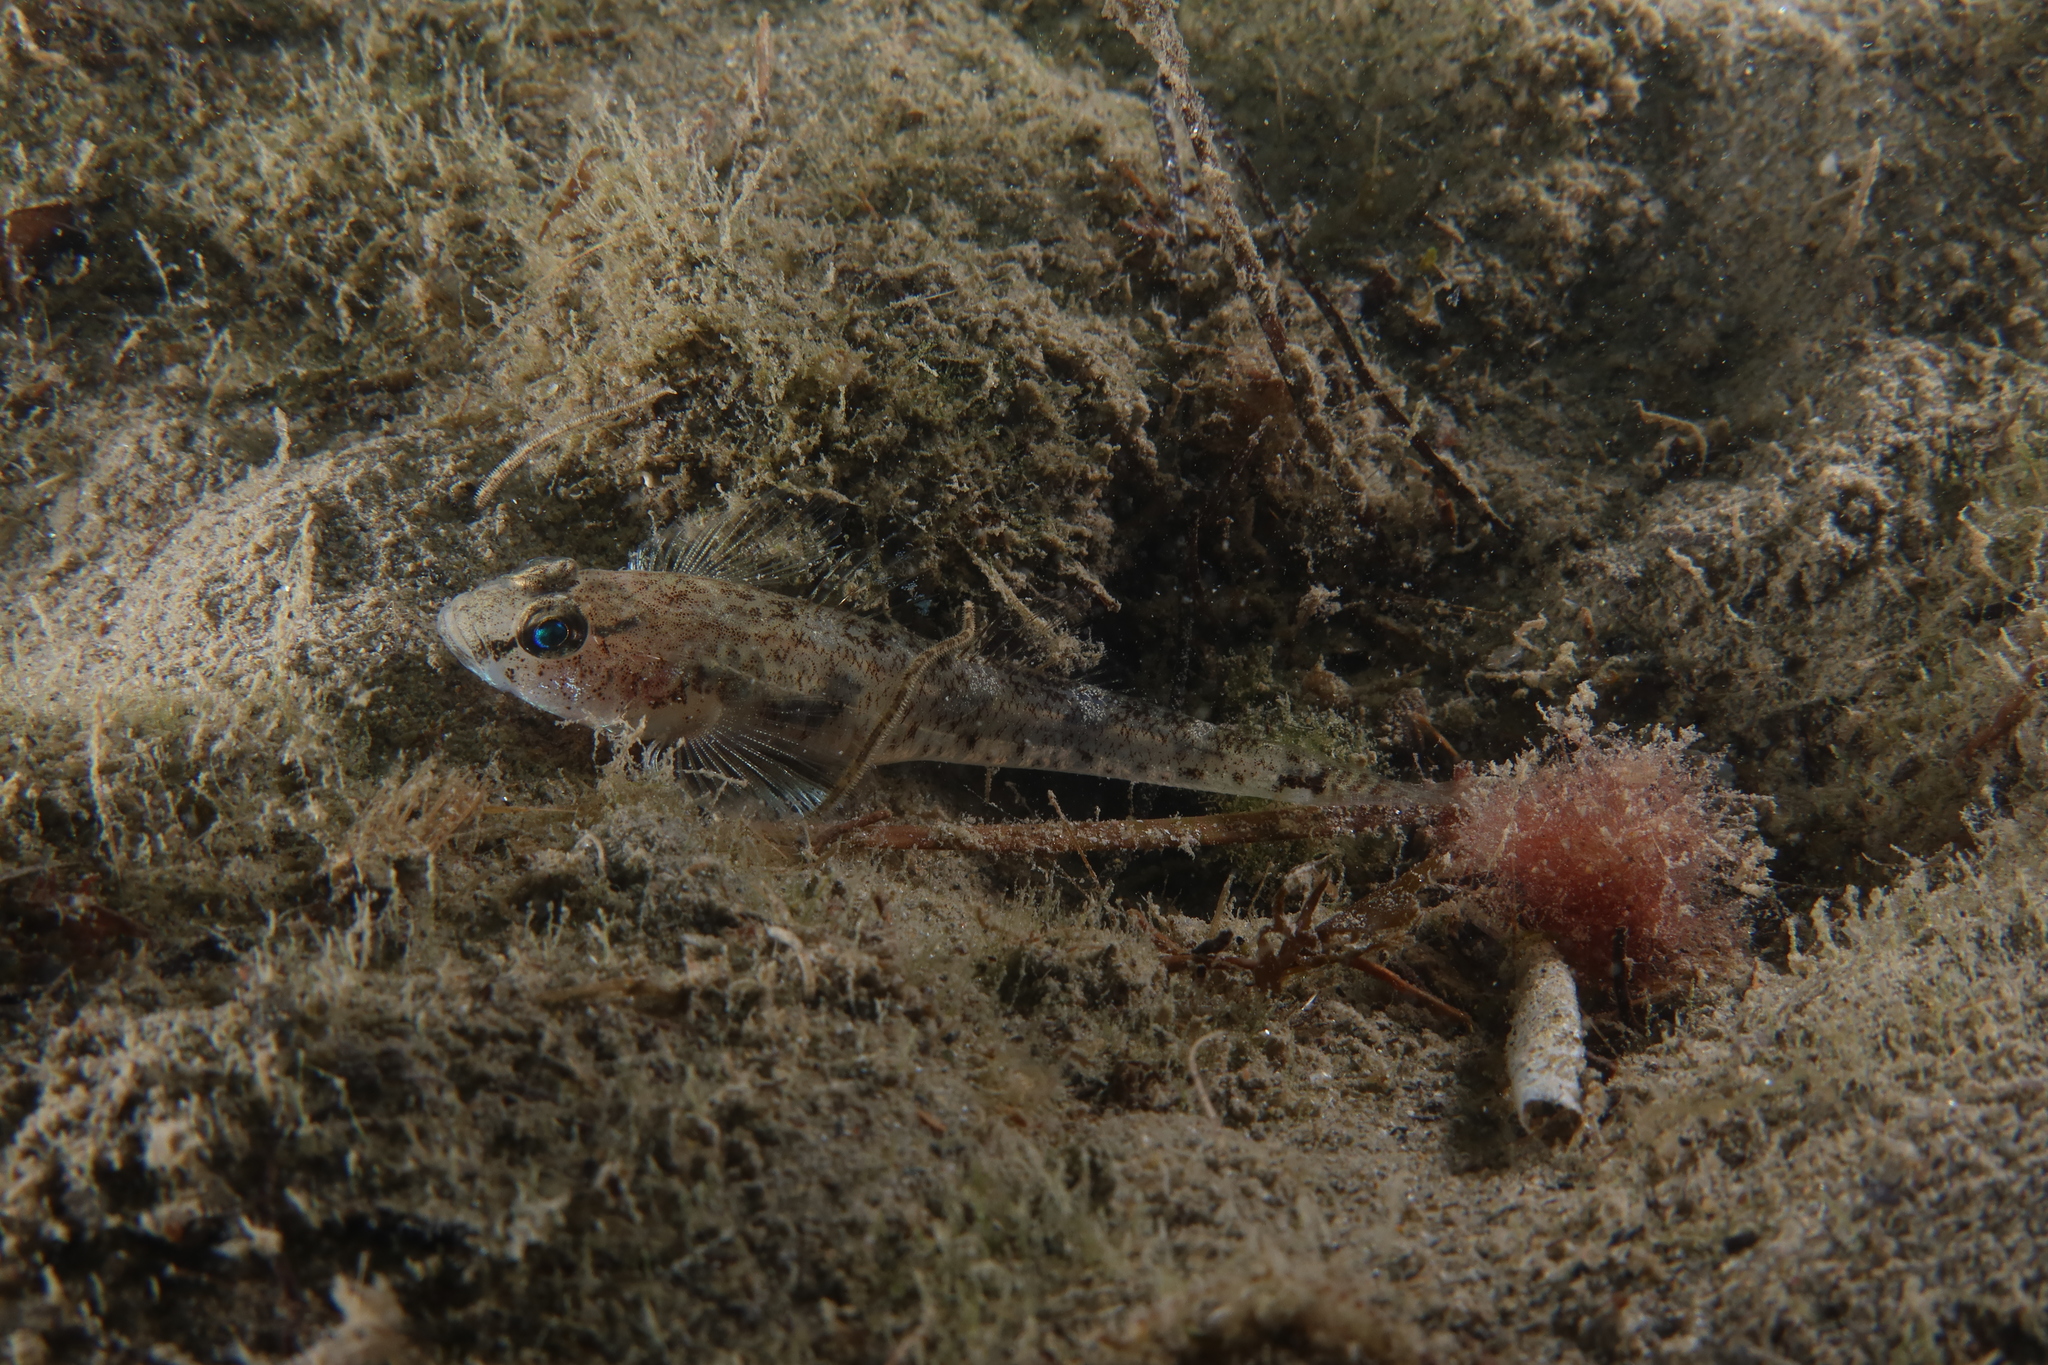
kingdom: Animalia
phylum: Chordata
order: Perciformes
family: Gobiidae
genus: Pomatoschistus
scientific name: Pomatoschistus minutus
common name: Sand goby
